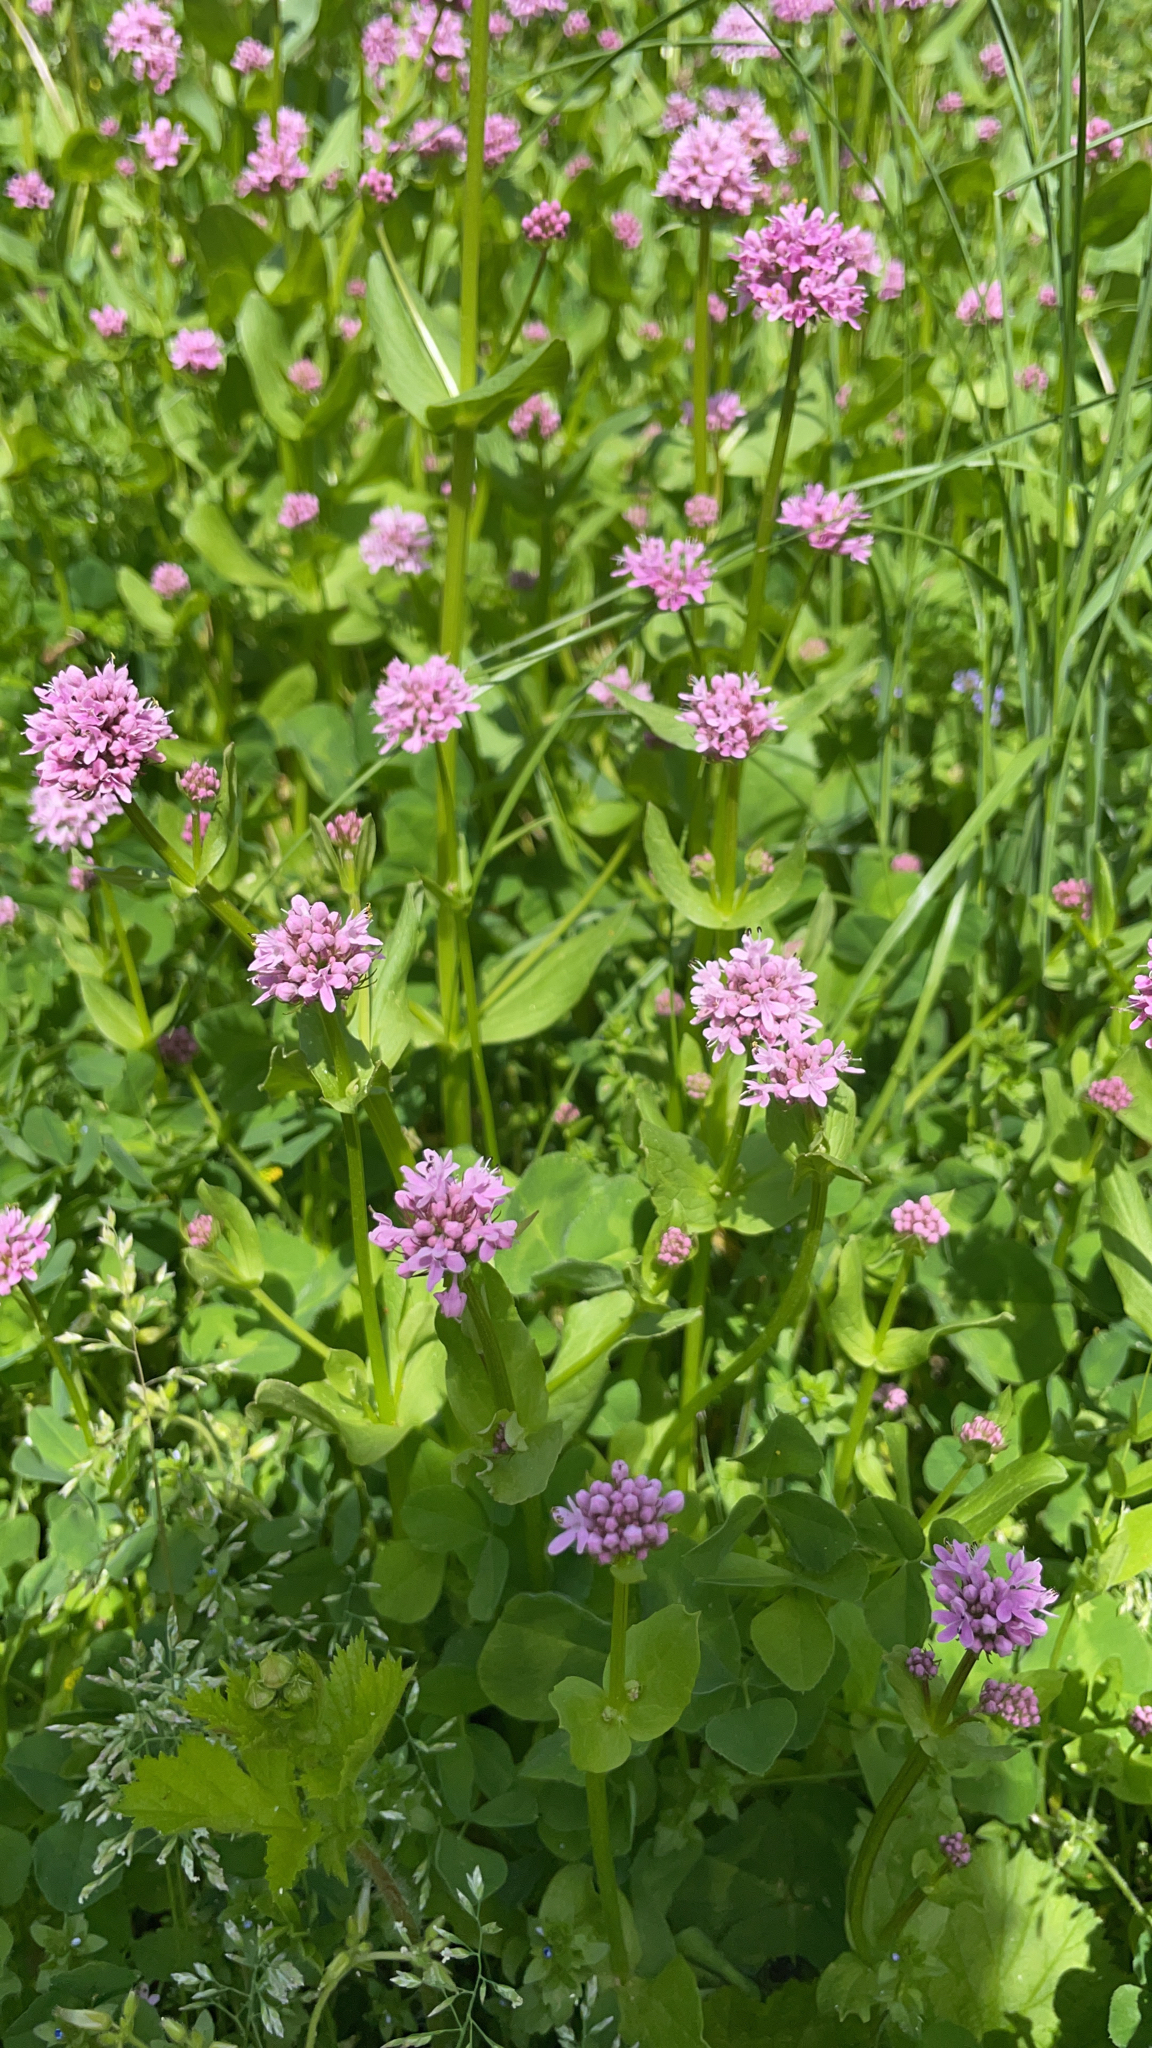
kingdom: Plantae
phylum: Tracheophyta
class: Magnoliopsida
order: Dipsacales
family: Caprifoliaceae
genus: Plectritis
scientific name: Plectritis congesta
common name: Pink plectritis
